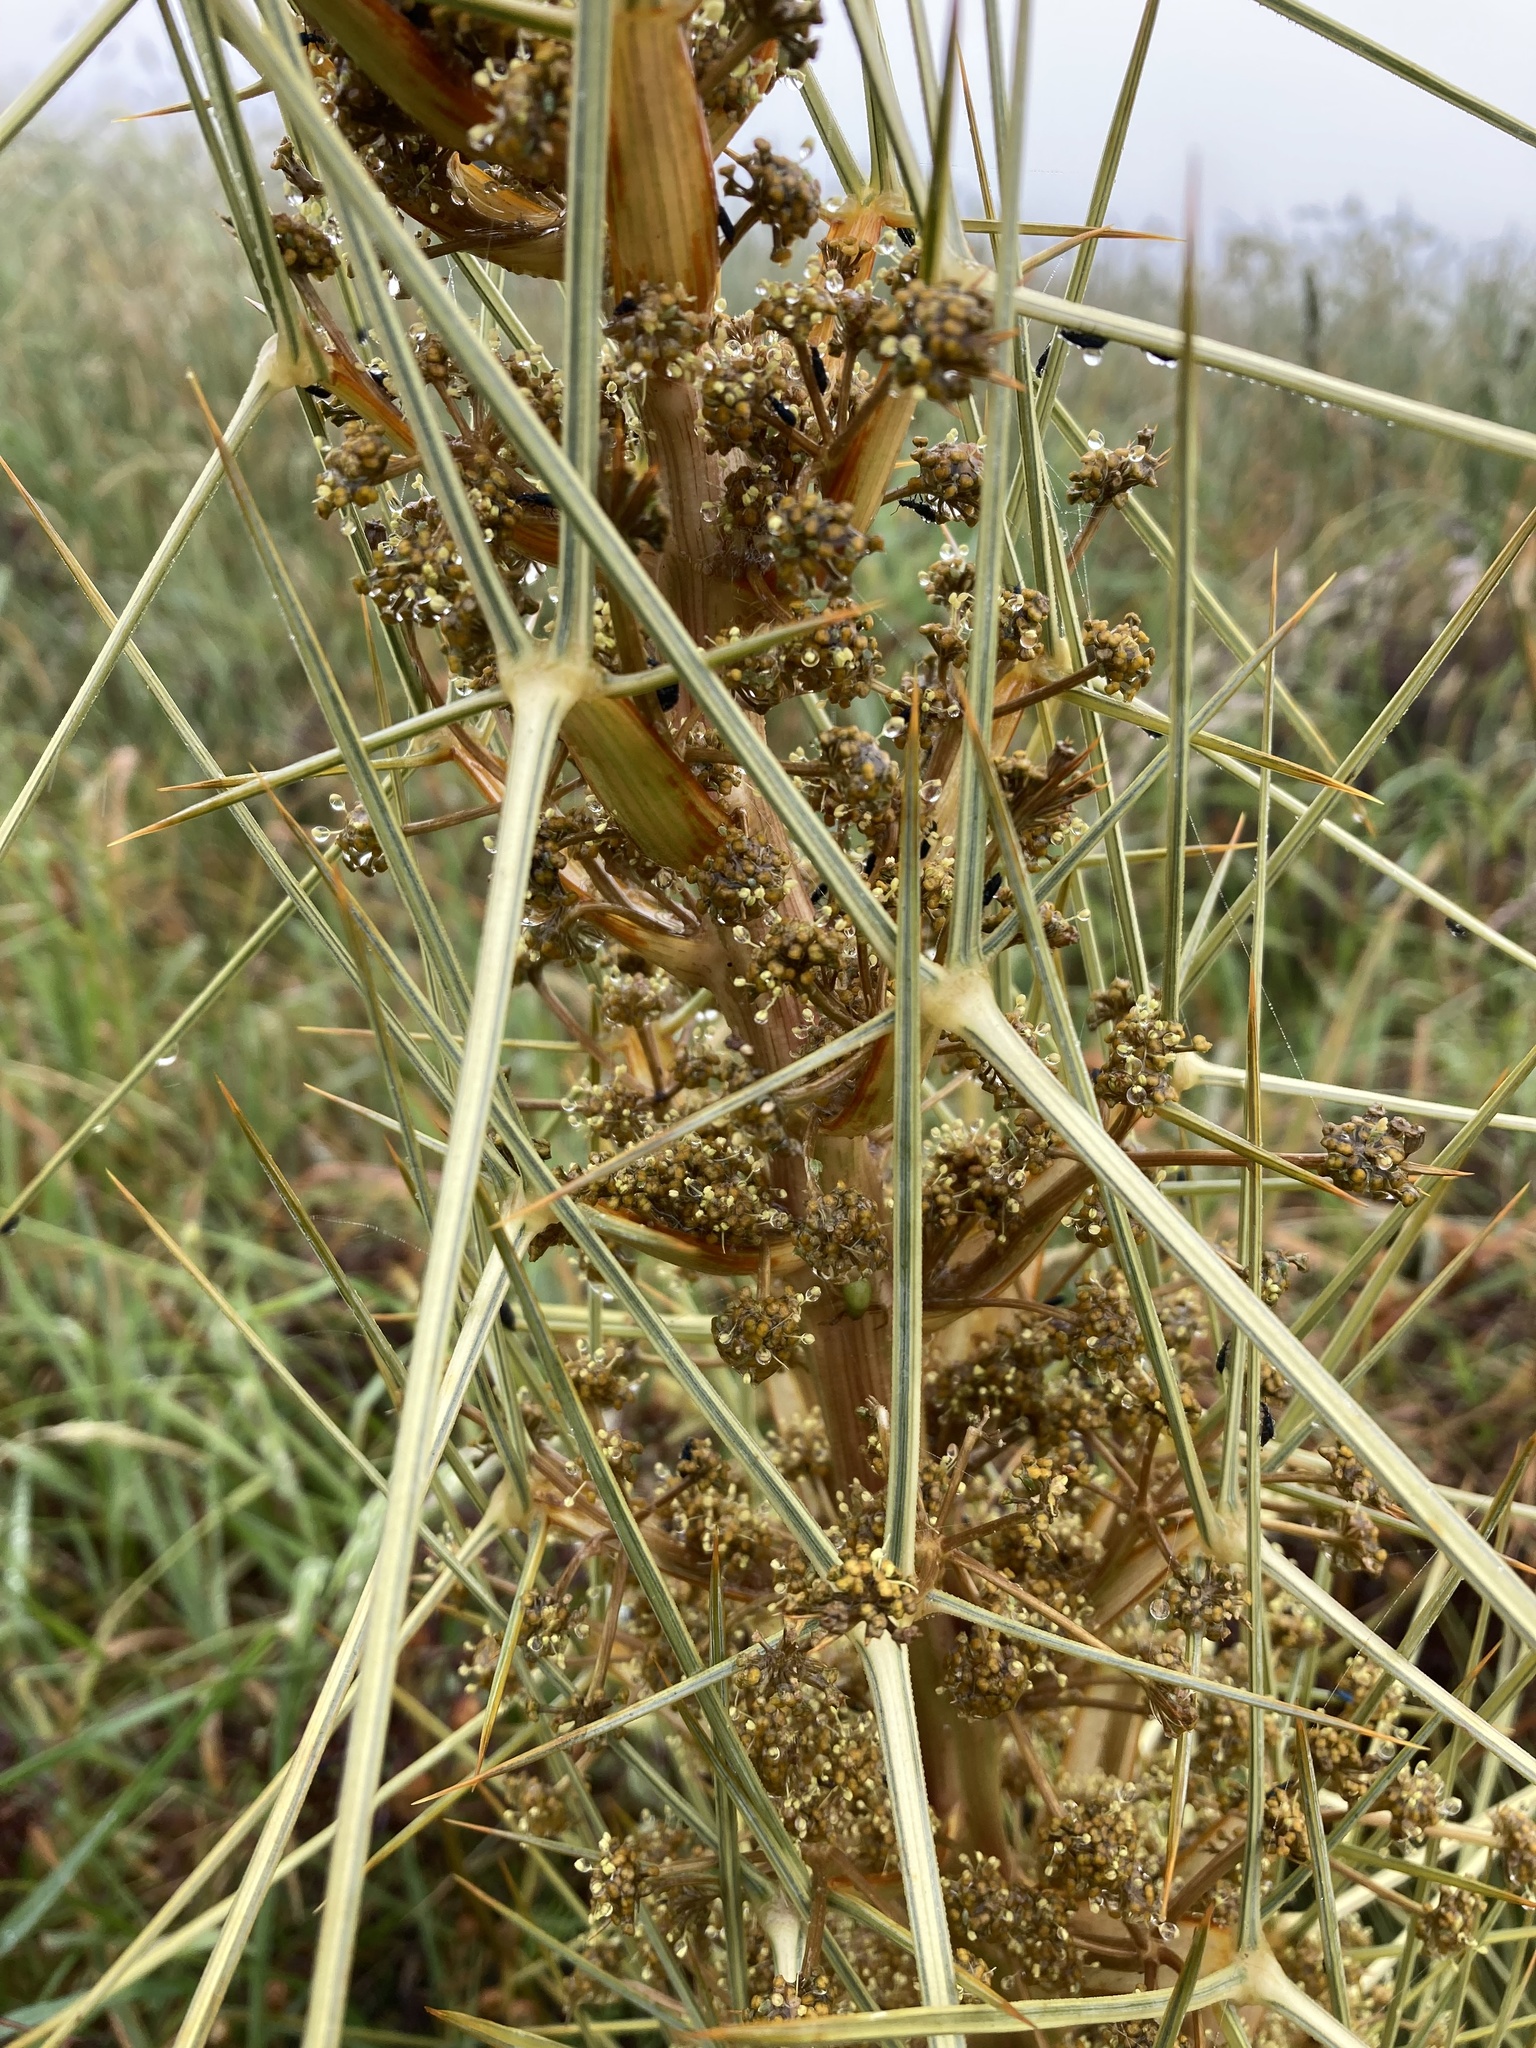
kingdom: Plantae
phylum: Tracheophyta
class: Magnoliopsida
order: Apiales
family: Apiaceae
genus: Aciphylla
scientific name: Aciphylla subflabellata
